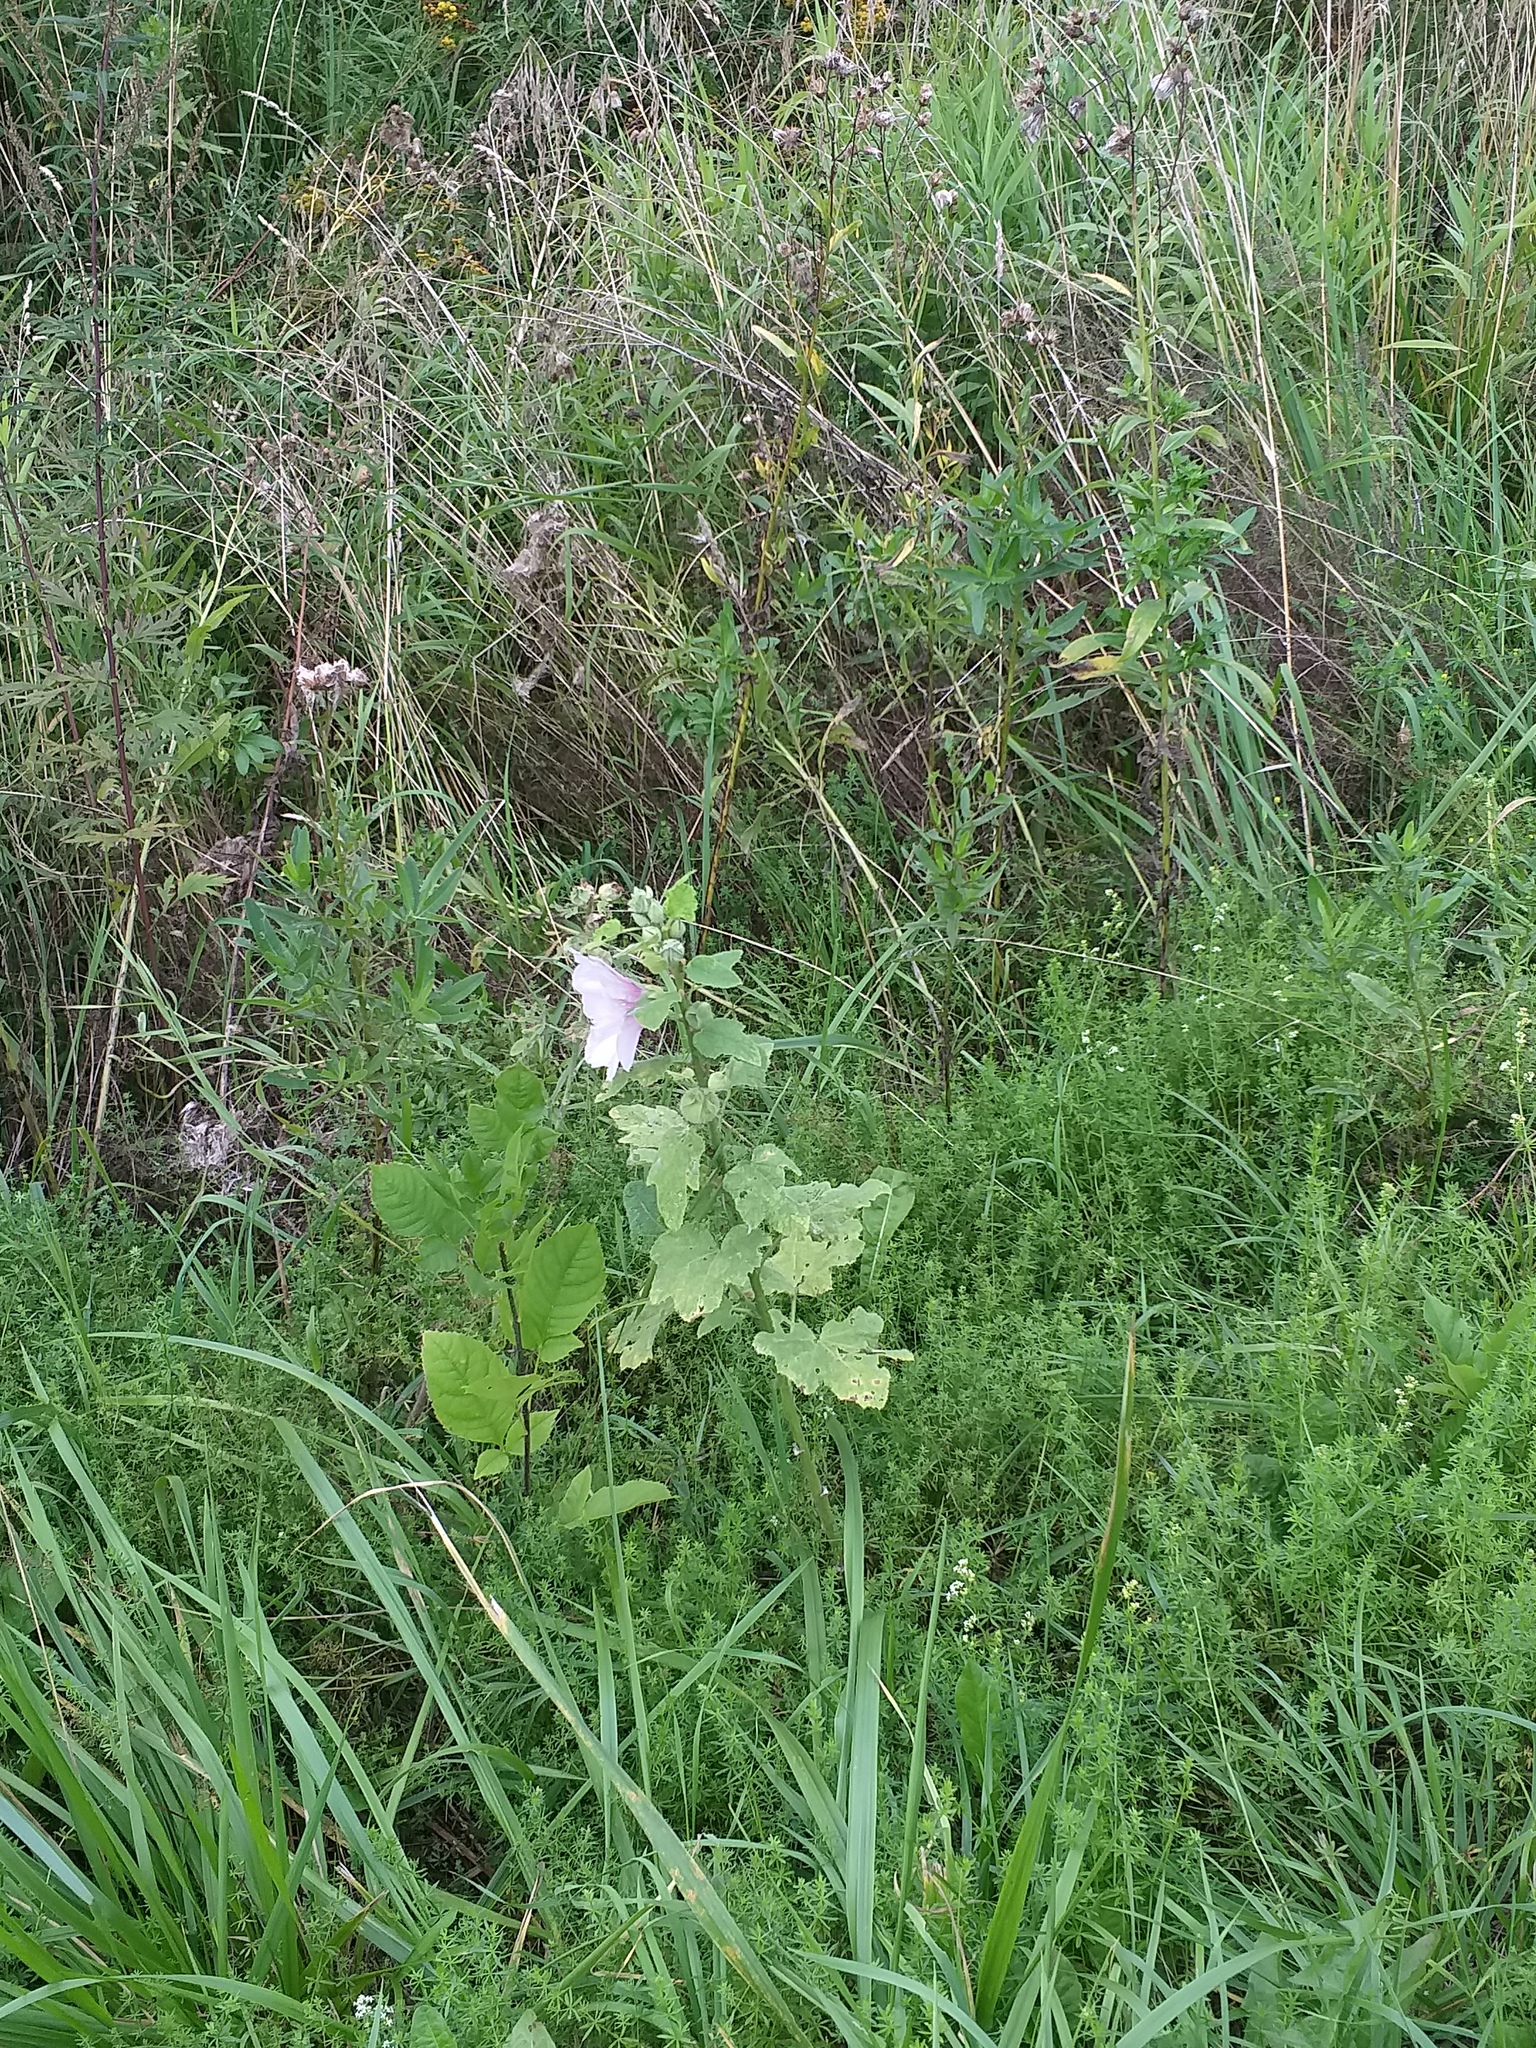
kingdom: Plantae
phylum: Tracheophyta
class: Magnoliopsida
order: Malvales
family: Malvaceae
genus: Alcea
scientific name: Alcea rosea
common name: Hollyhock
